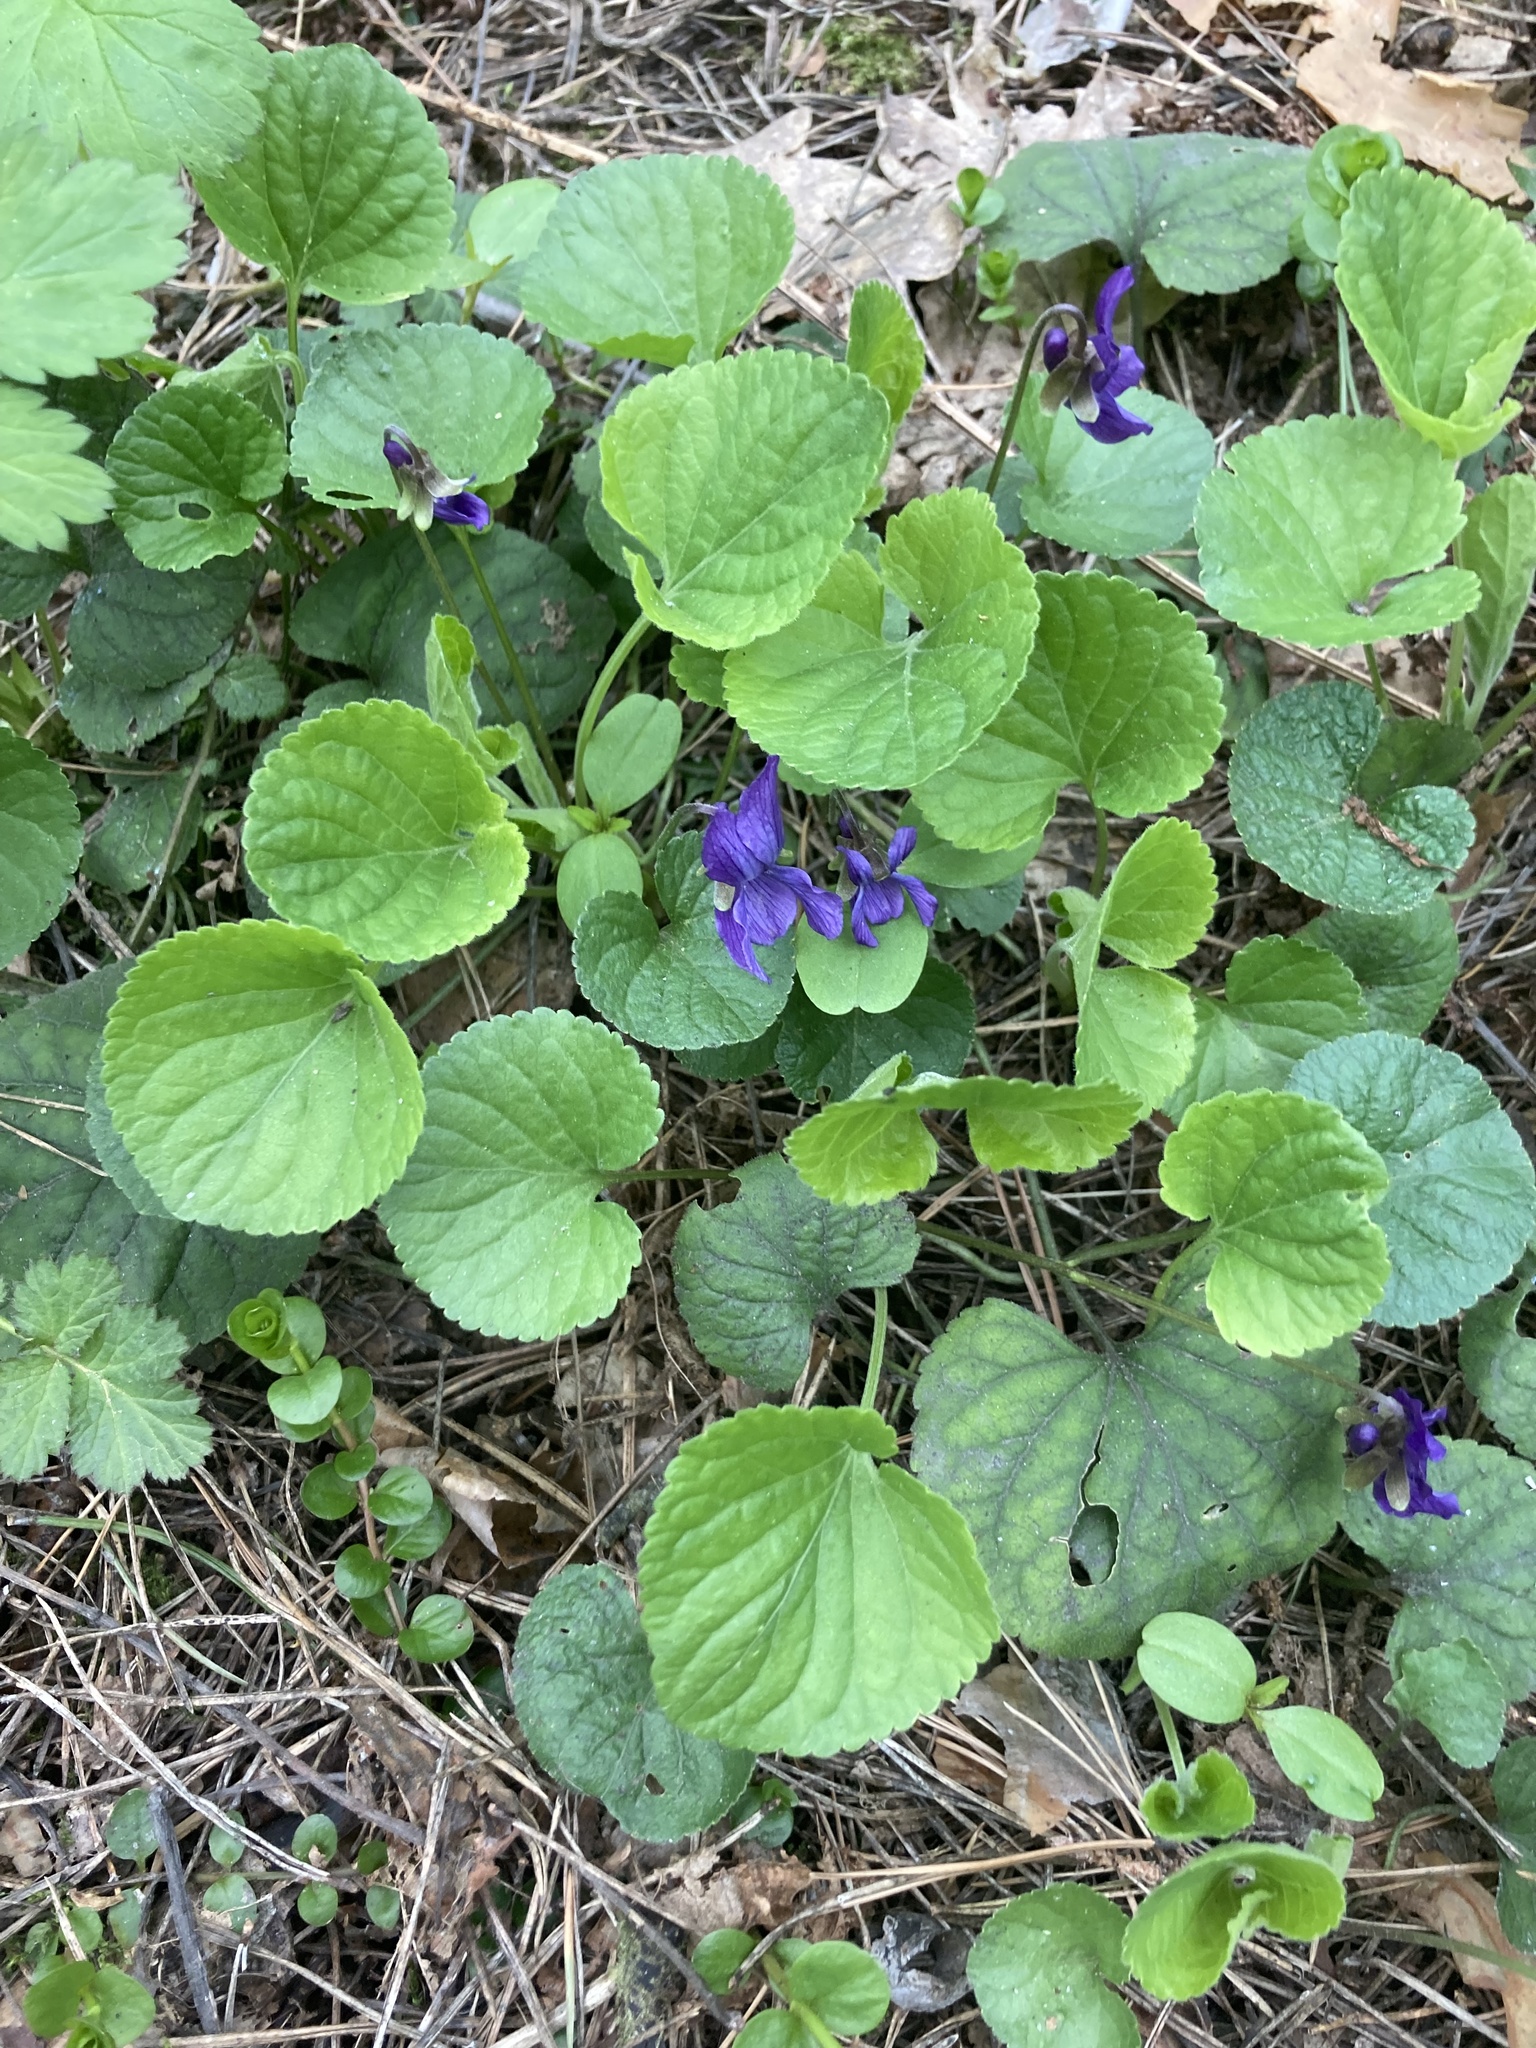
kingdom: Plantae
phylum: Tracheophyta
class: Magnoliopsida
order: Malpighiales
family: Violaceae
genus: Viola
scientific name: Viola odorata
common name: Sweet violet
